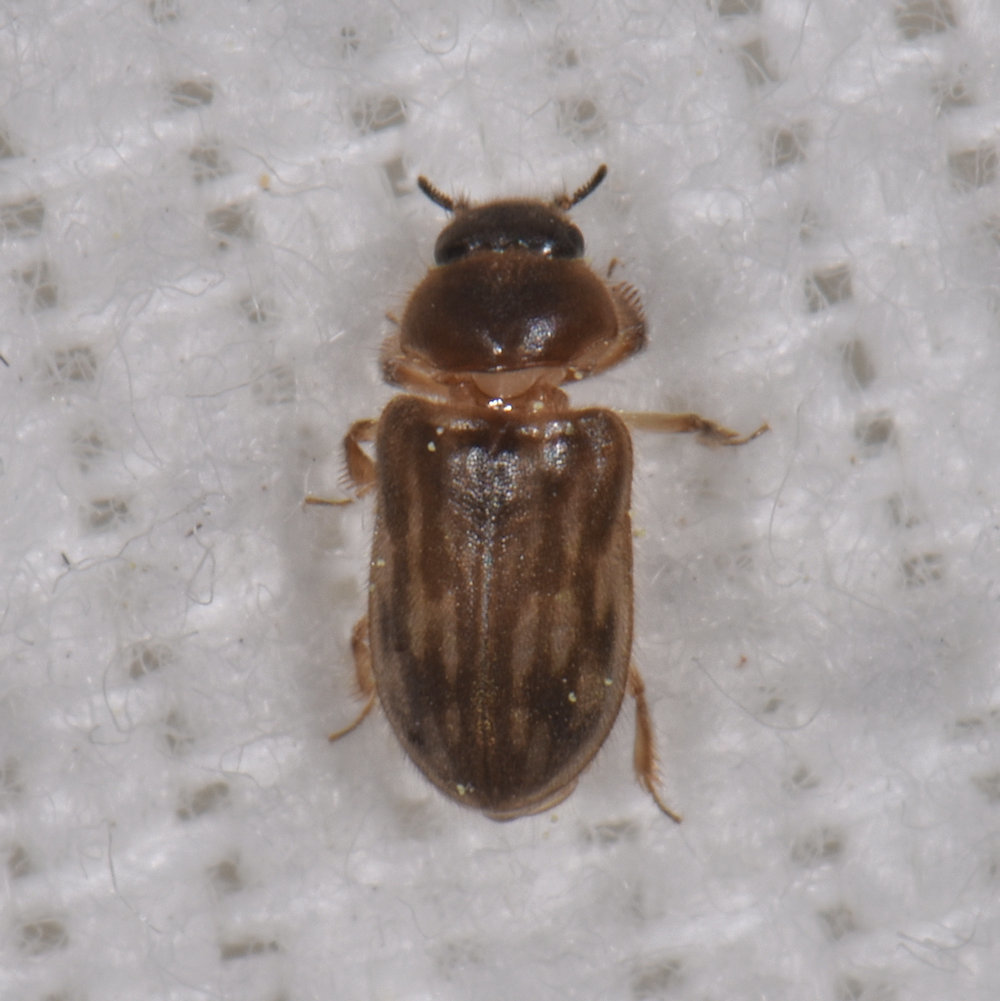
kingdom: Animalia
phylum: Arthropoda
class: Insecta
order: Coleoptera
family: Heteroceridae
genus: Heterocerus
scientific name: Heterocerus fenestratus
